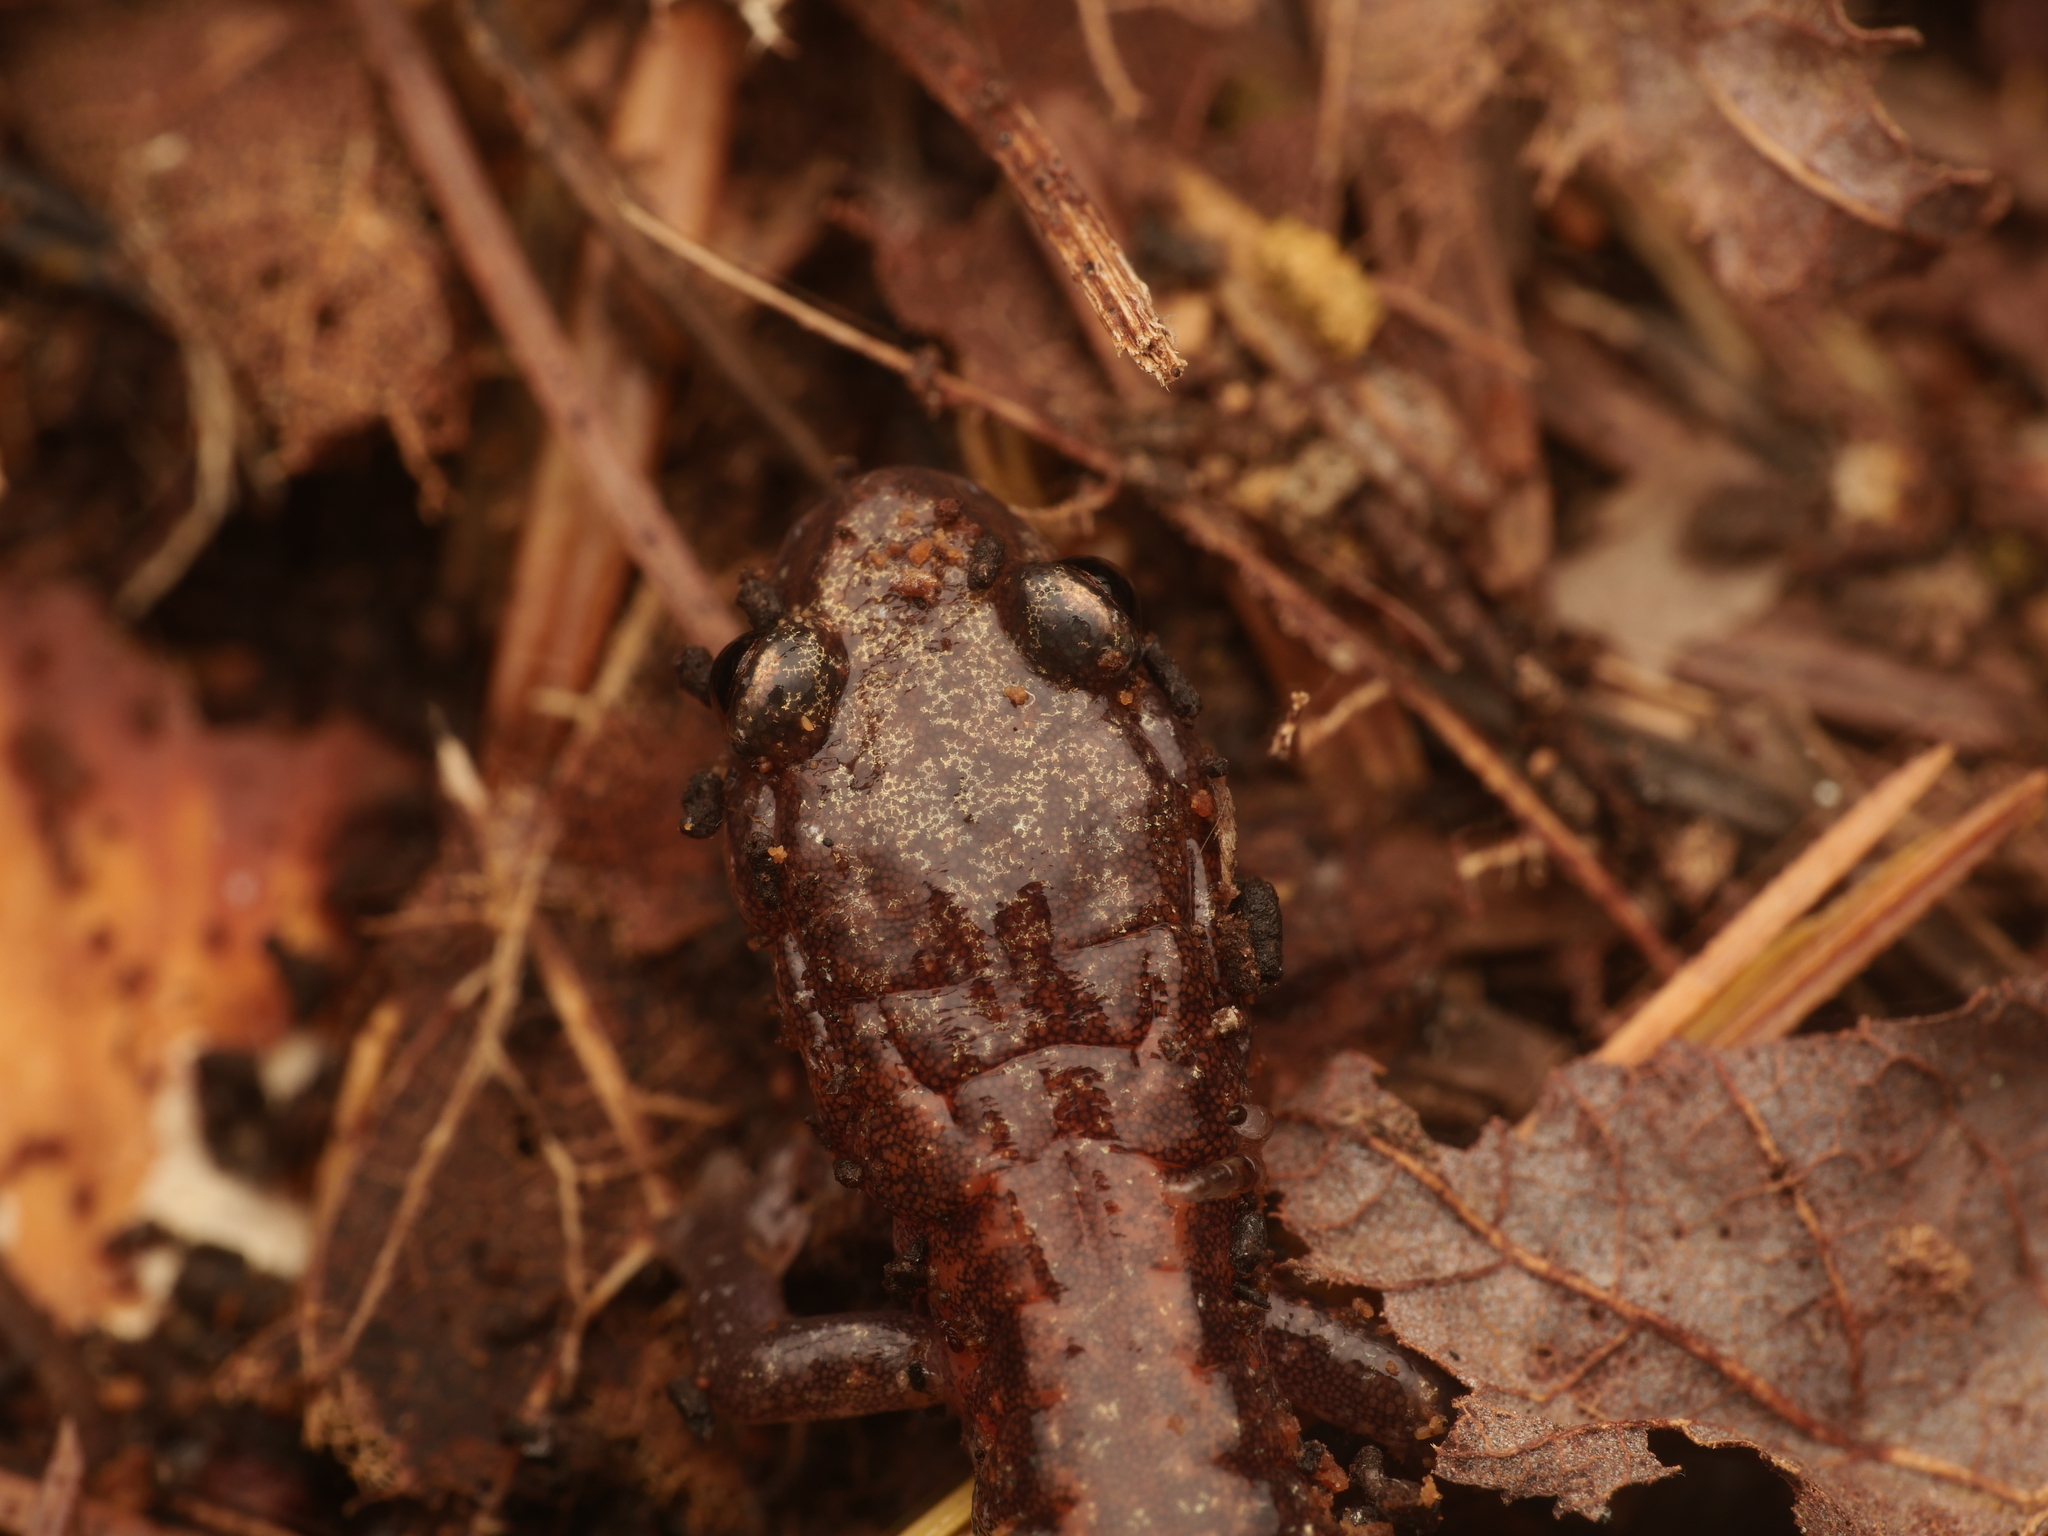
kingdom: Animalia
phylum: Chordata
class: Amphibia
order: Caudata
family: Plethodontidae
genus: Plethodon
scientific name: Plethodon cinereus
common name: Redback salamander
